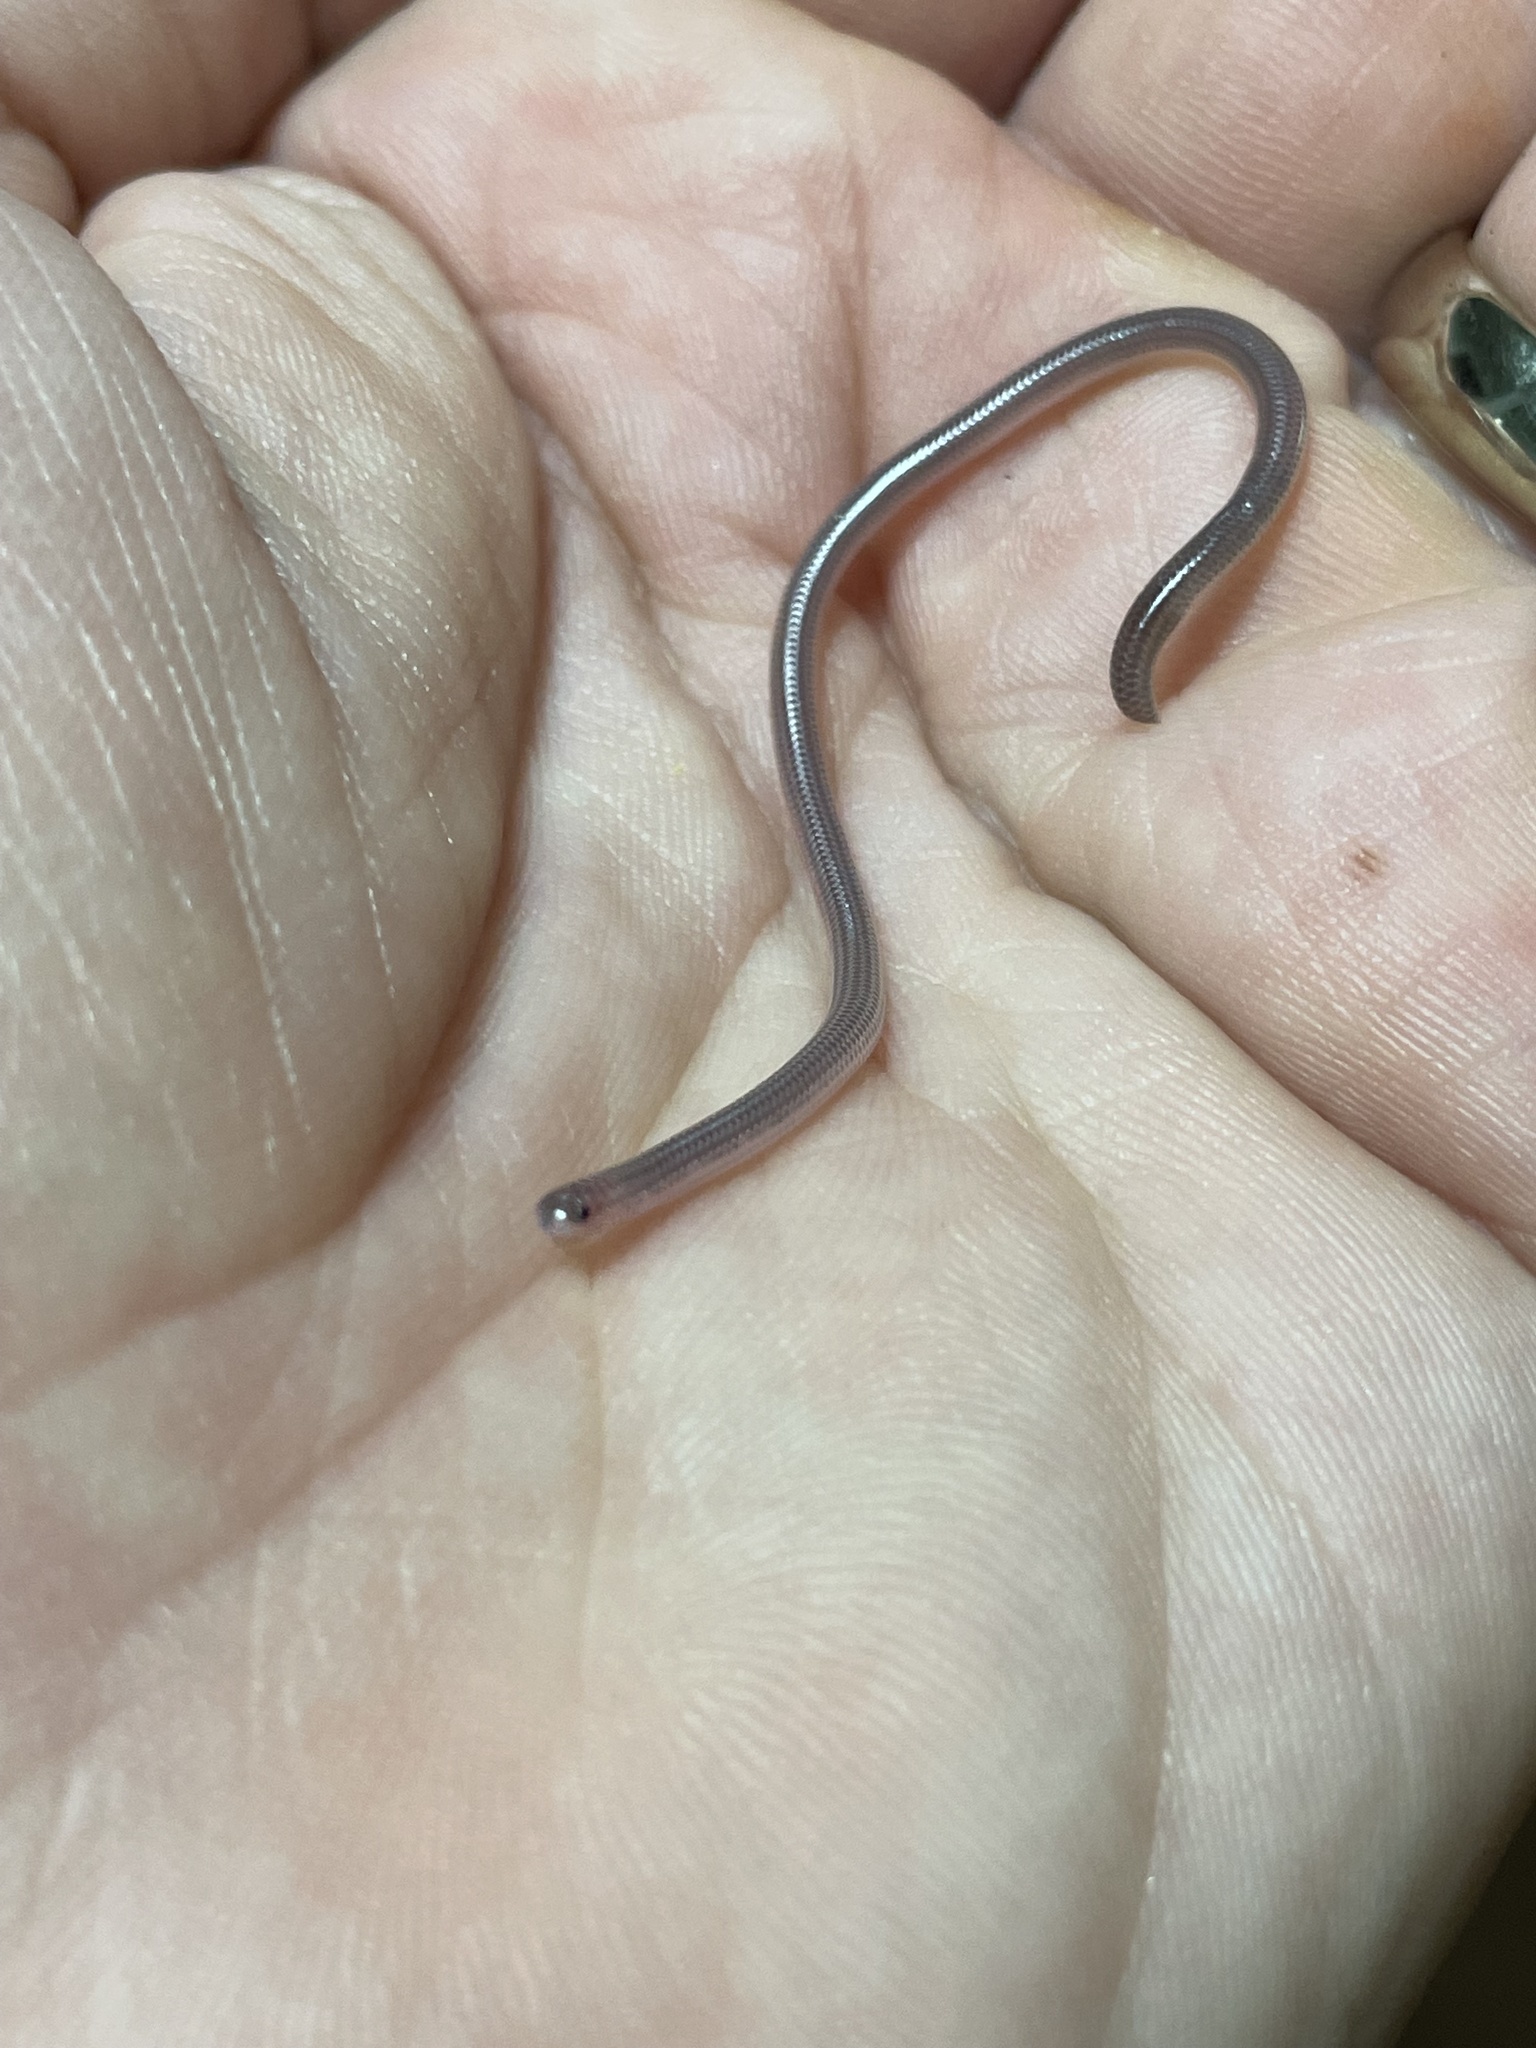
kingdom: Animalia
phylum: Chordata
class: Squamata
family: Leptotyphlopidae
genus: Rena
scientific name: Rena dulcis
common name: Texas blind snake
